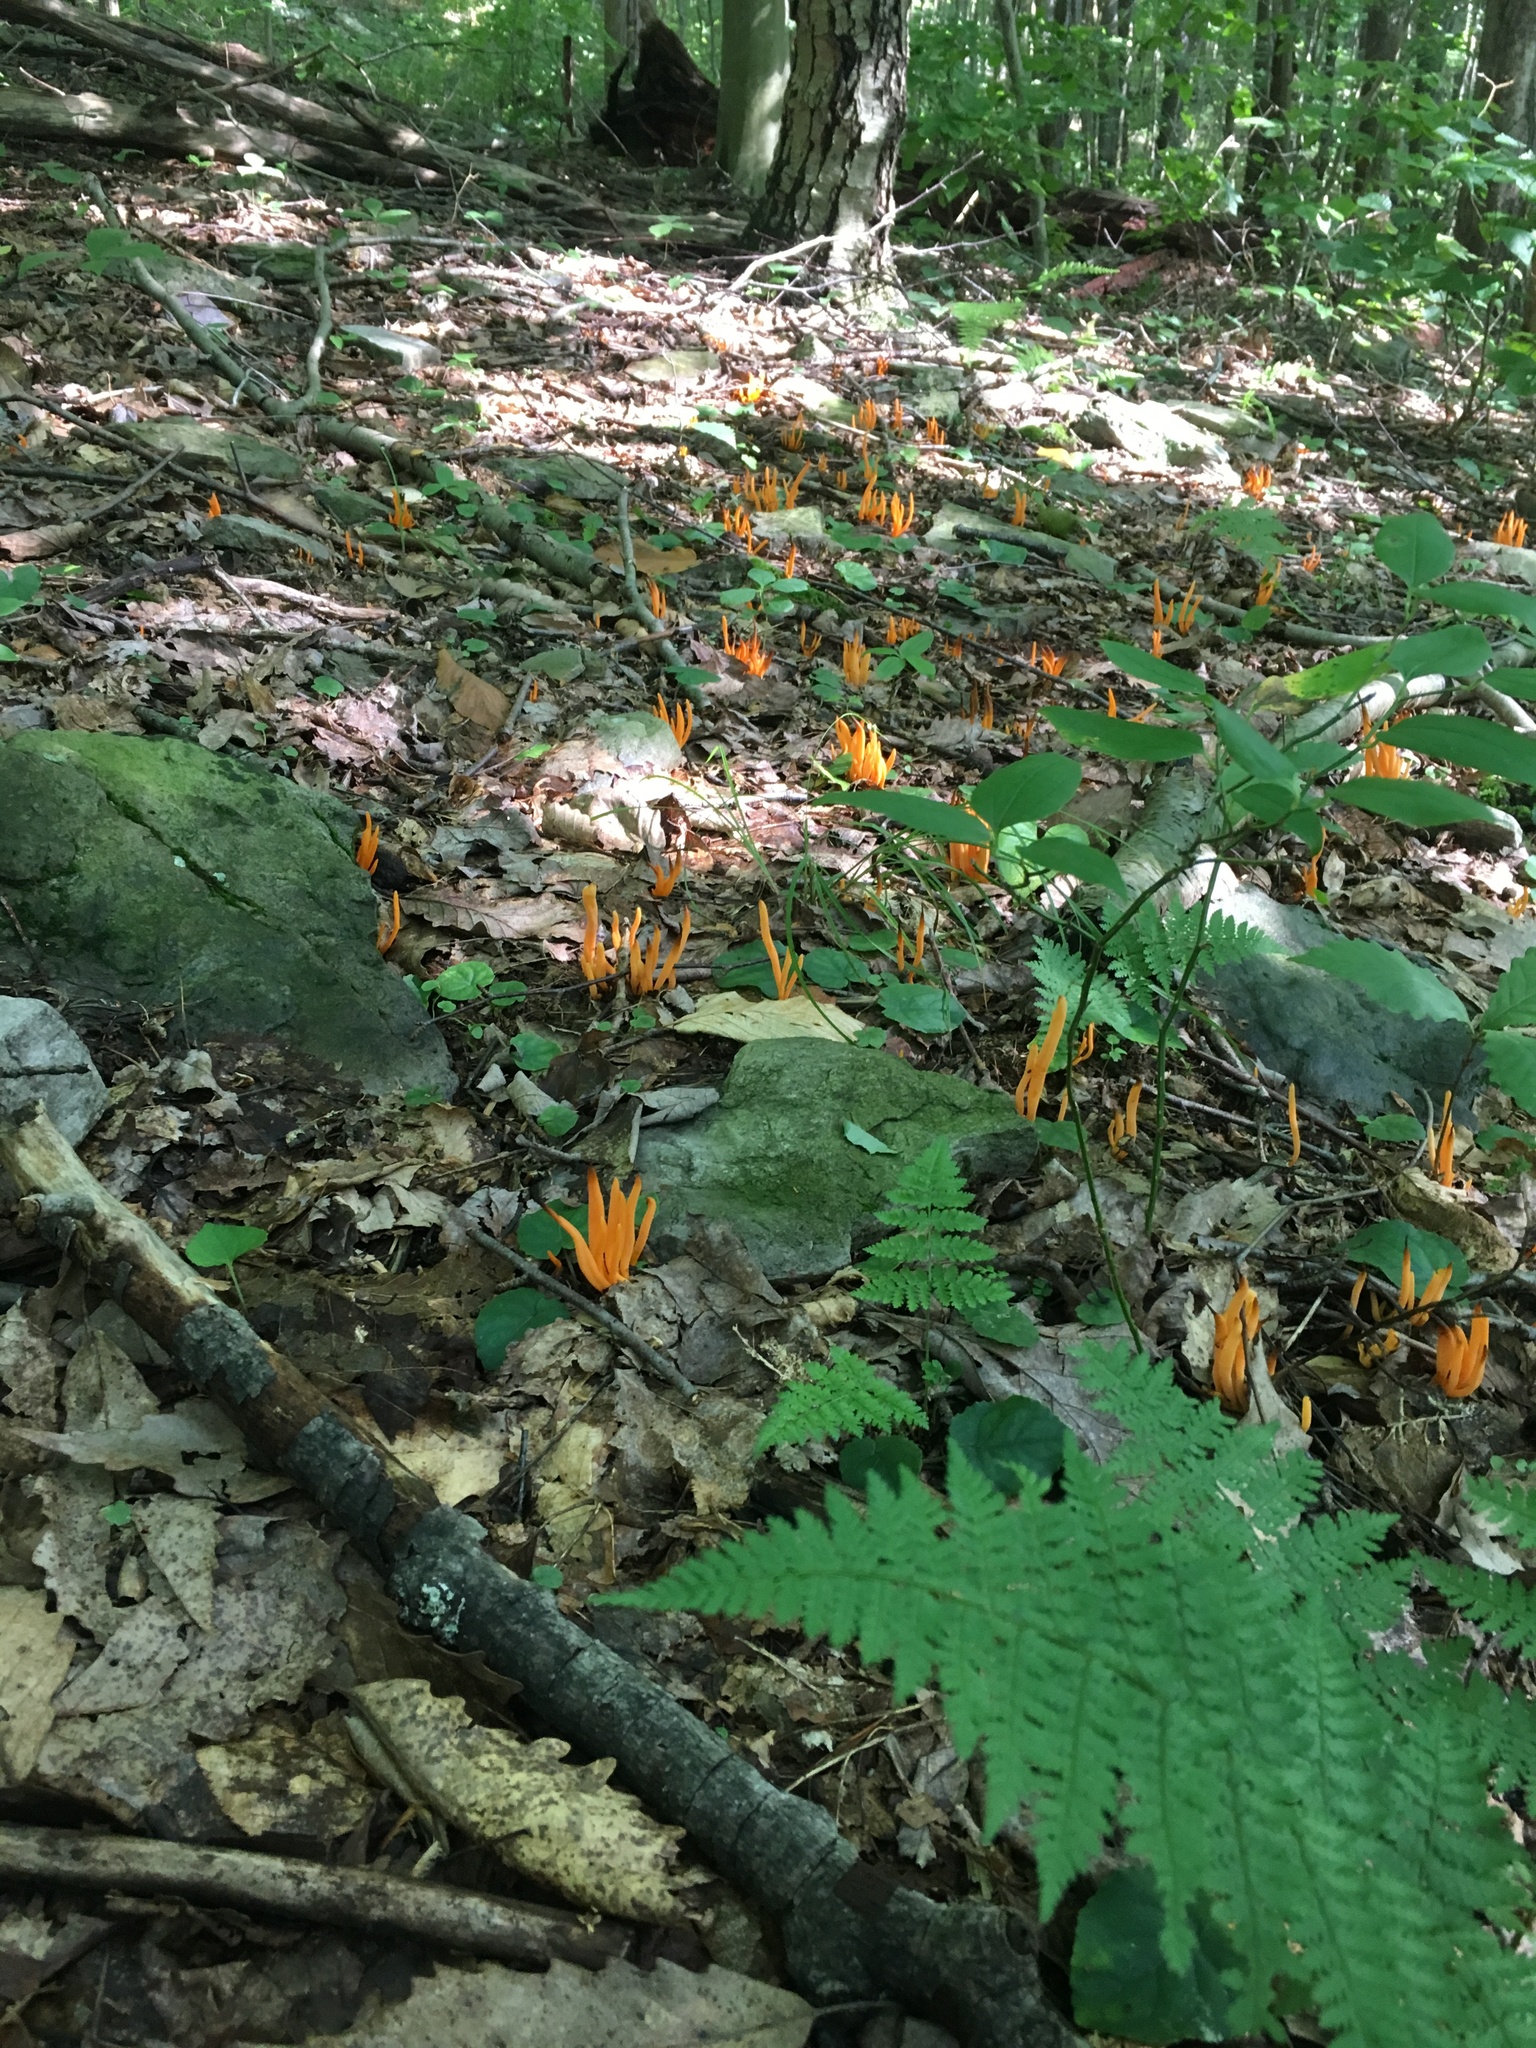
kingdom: Fungi
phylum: Basidiomycota
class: Agaricomycetes
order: Agaricales
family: Clavariaceae
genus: Clavulinopsis
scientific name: Clavulinopsis aurantiocinnabarina
